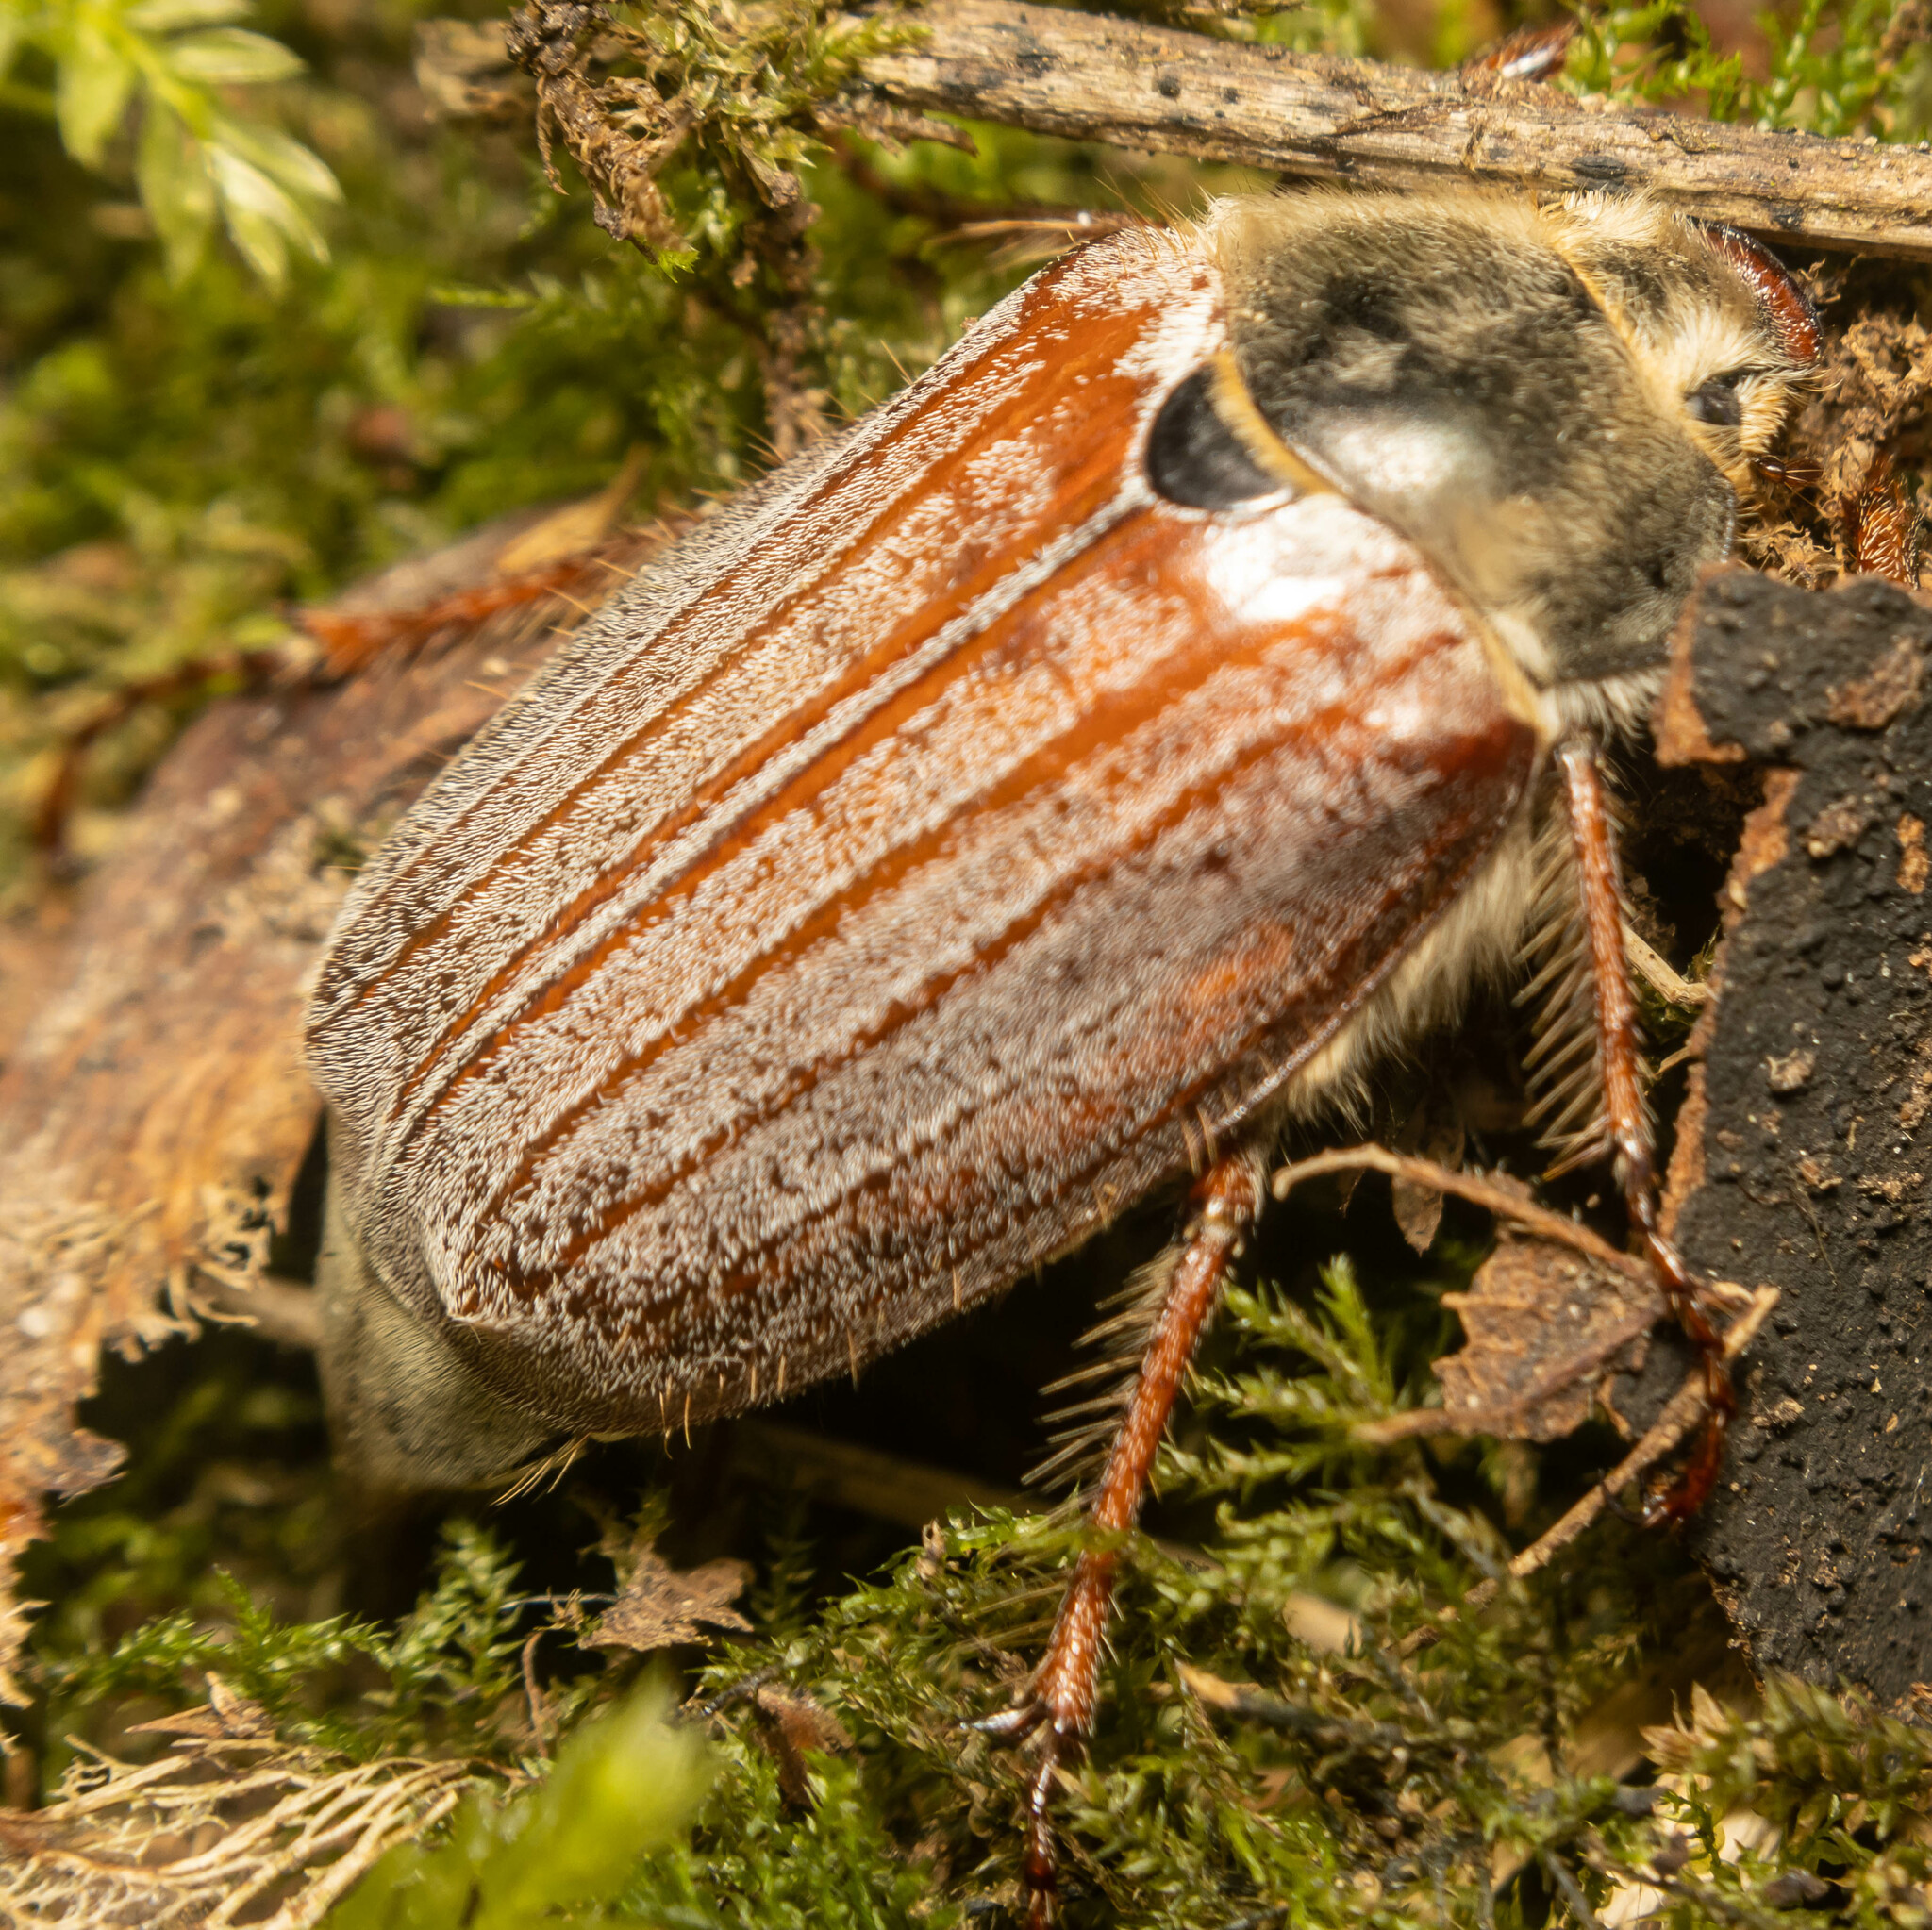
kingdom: Animalia
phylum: Arthropoda
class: Insecta
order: Coleoptera
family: Scarabaeidae
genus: Melolontha
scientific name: Melolontha melolontha
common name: Cockchafer maybeetle
